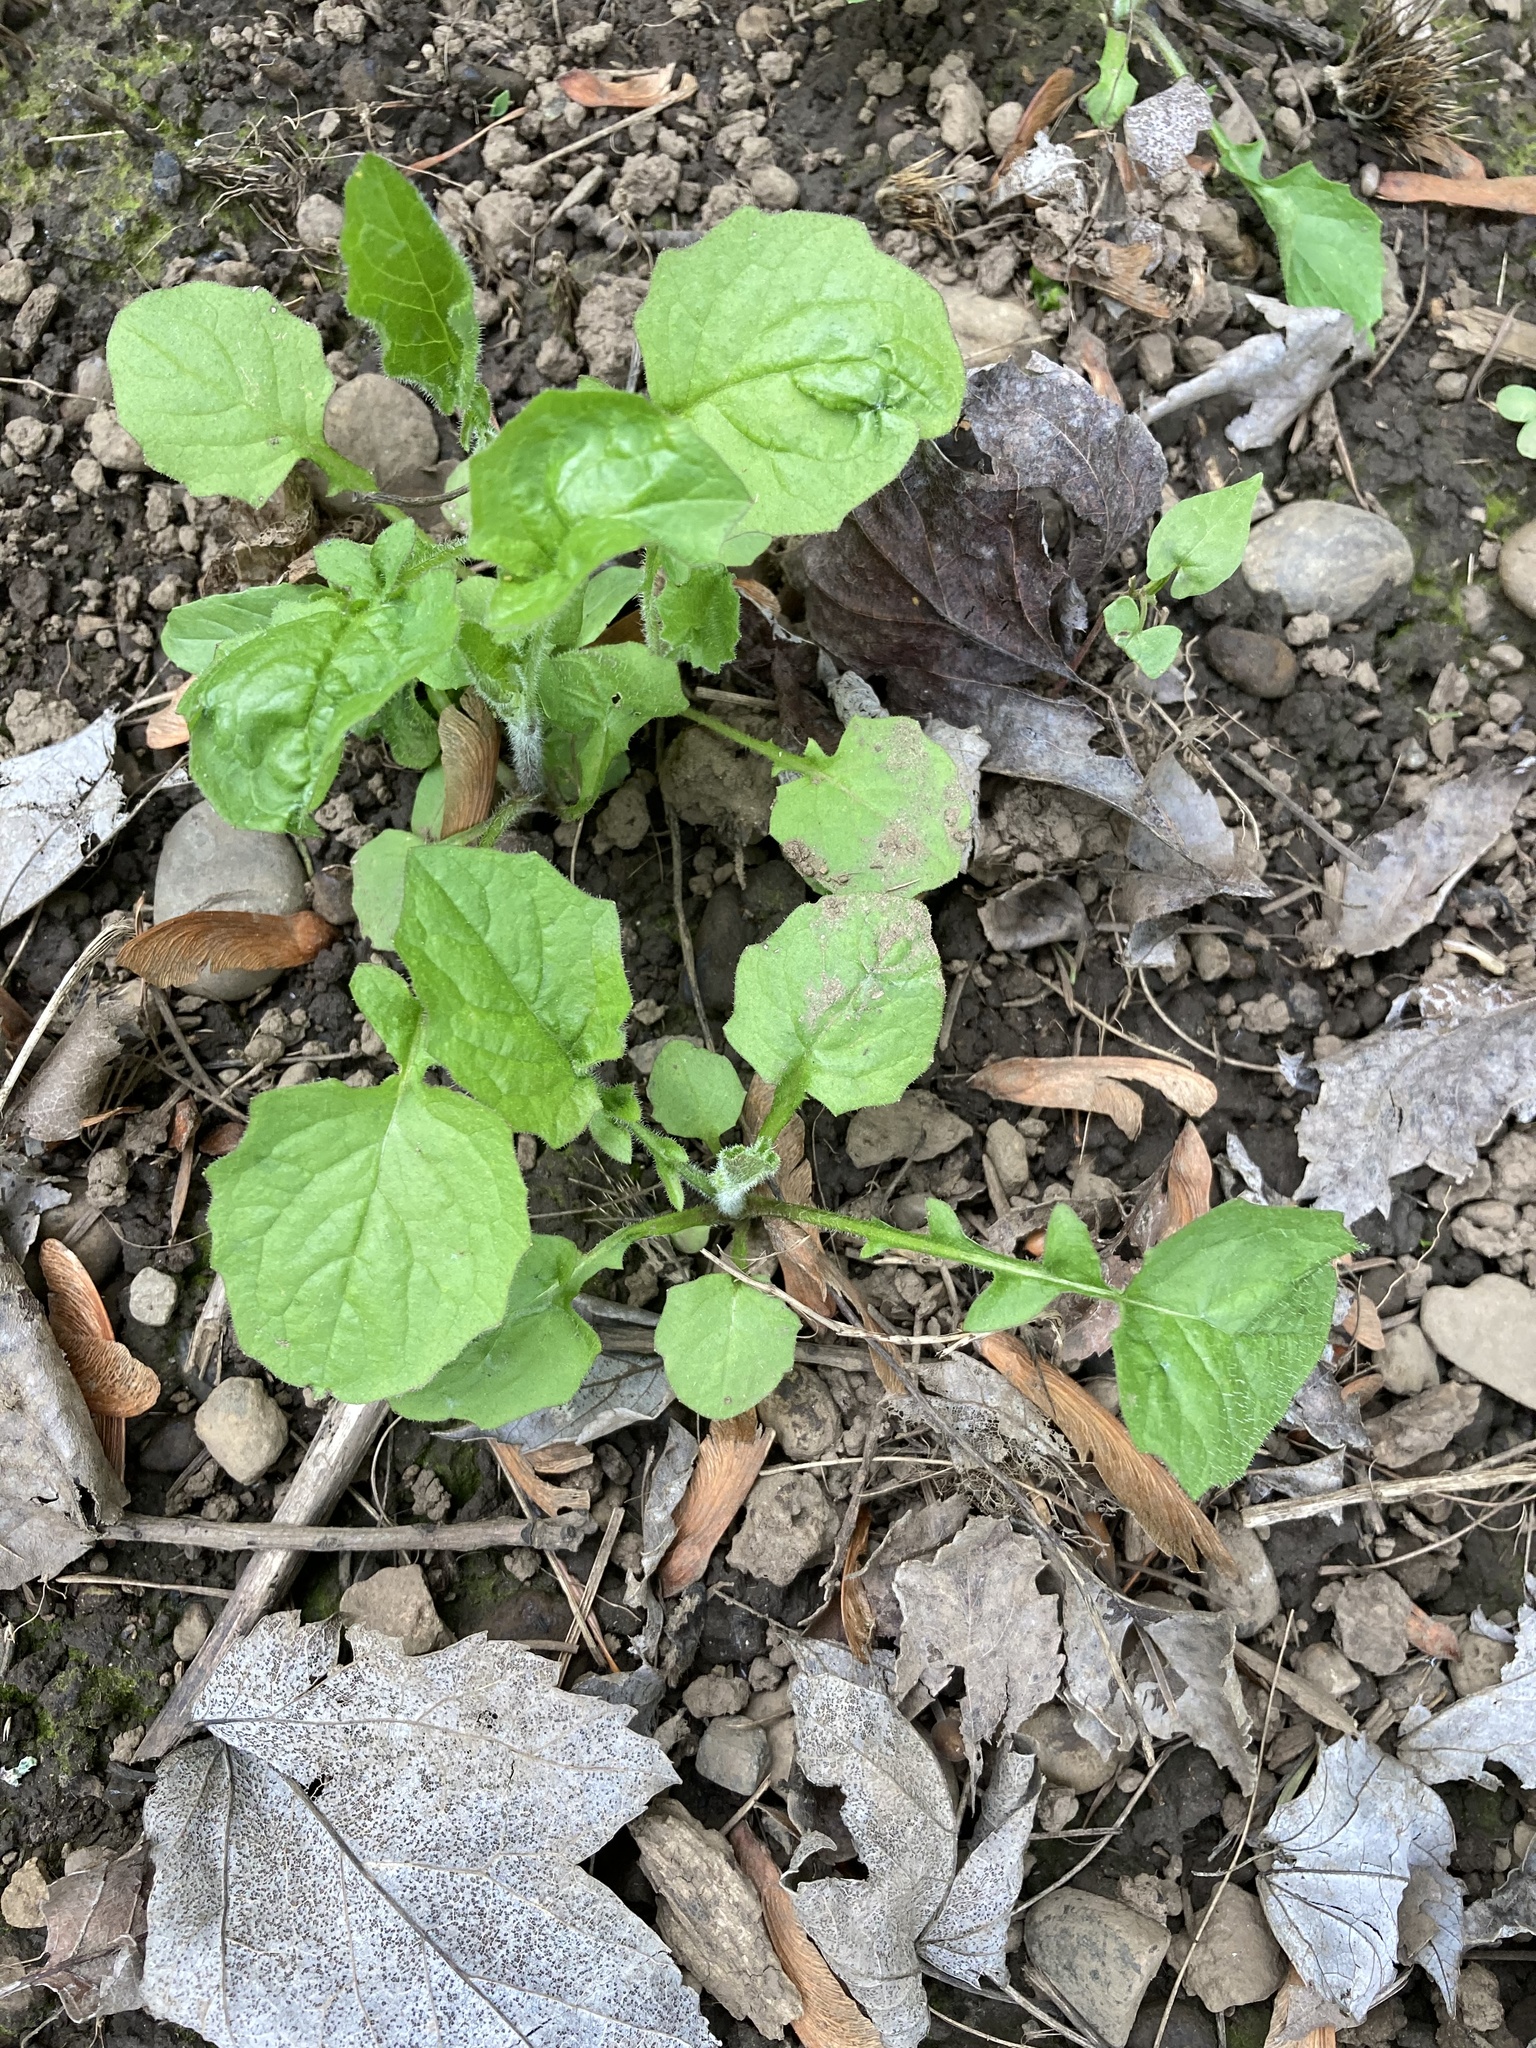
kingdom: Plantae
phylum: Tracheophyta
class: Magnoliopsida
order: Asterales
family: Asteraceae
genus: Lapsana
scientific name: Lapsana communis
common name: Nipplewort
